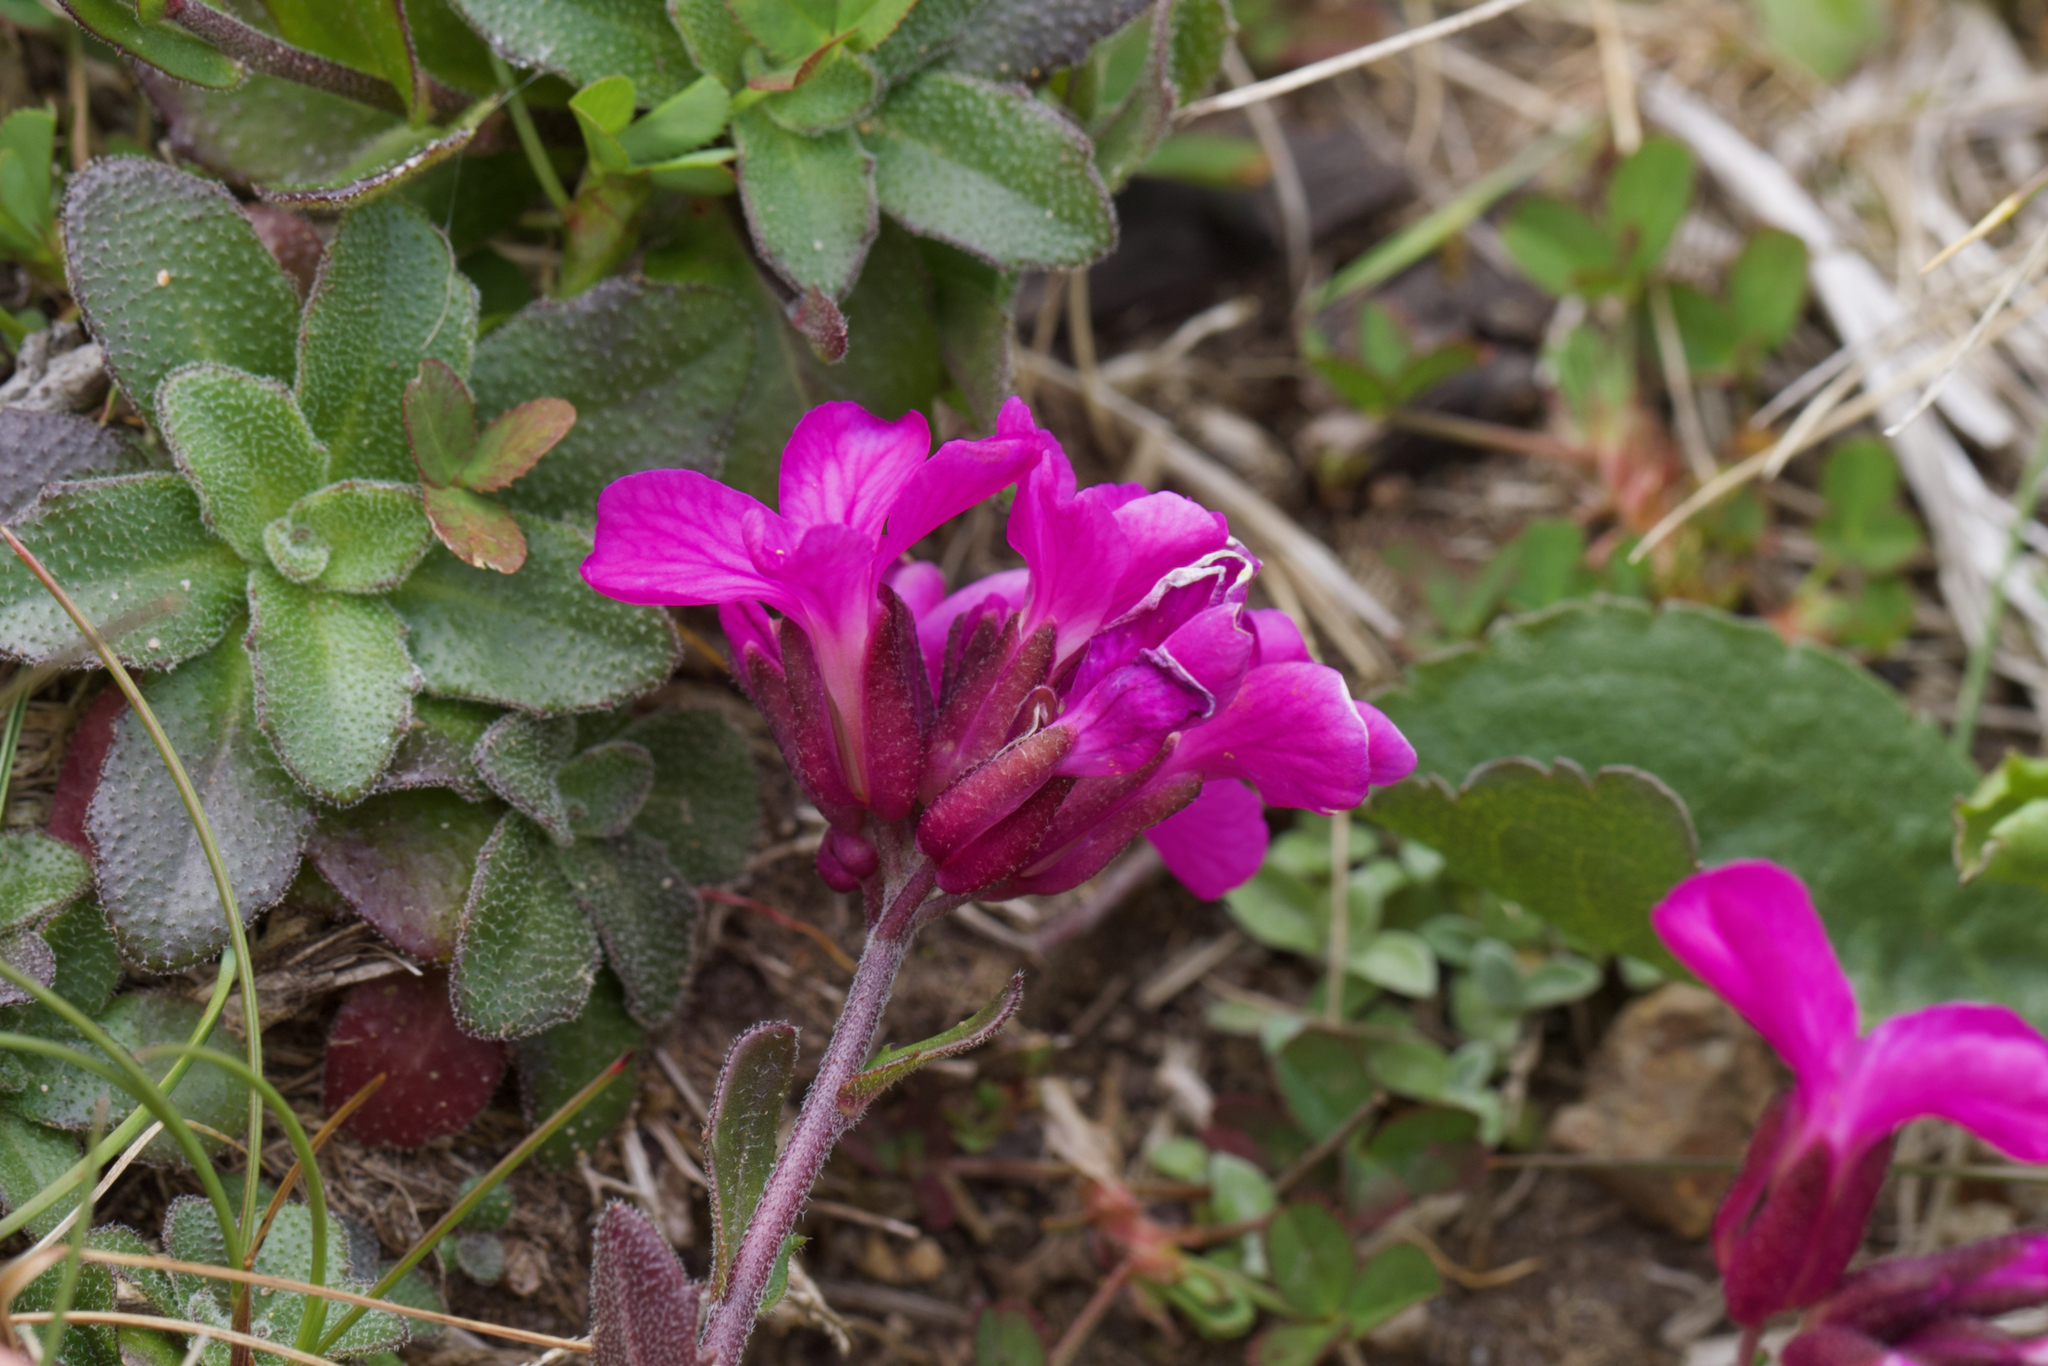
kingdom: Plantae
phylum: Tracheophyta
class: Magnoliopsida
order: Brassicales
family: Brassicaceae
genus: Arabis
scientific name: Arabis blepharophylla
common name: Rose rockcress
